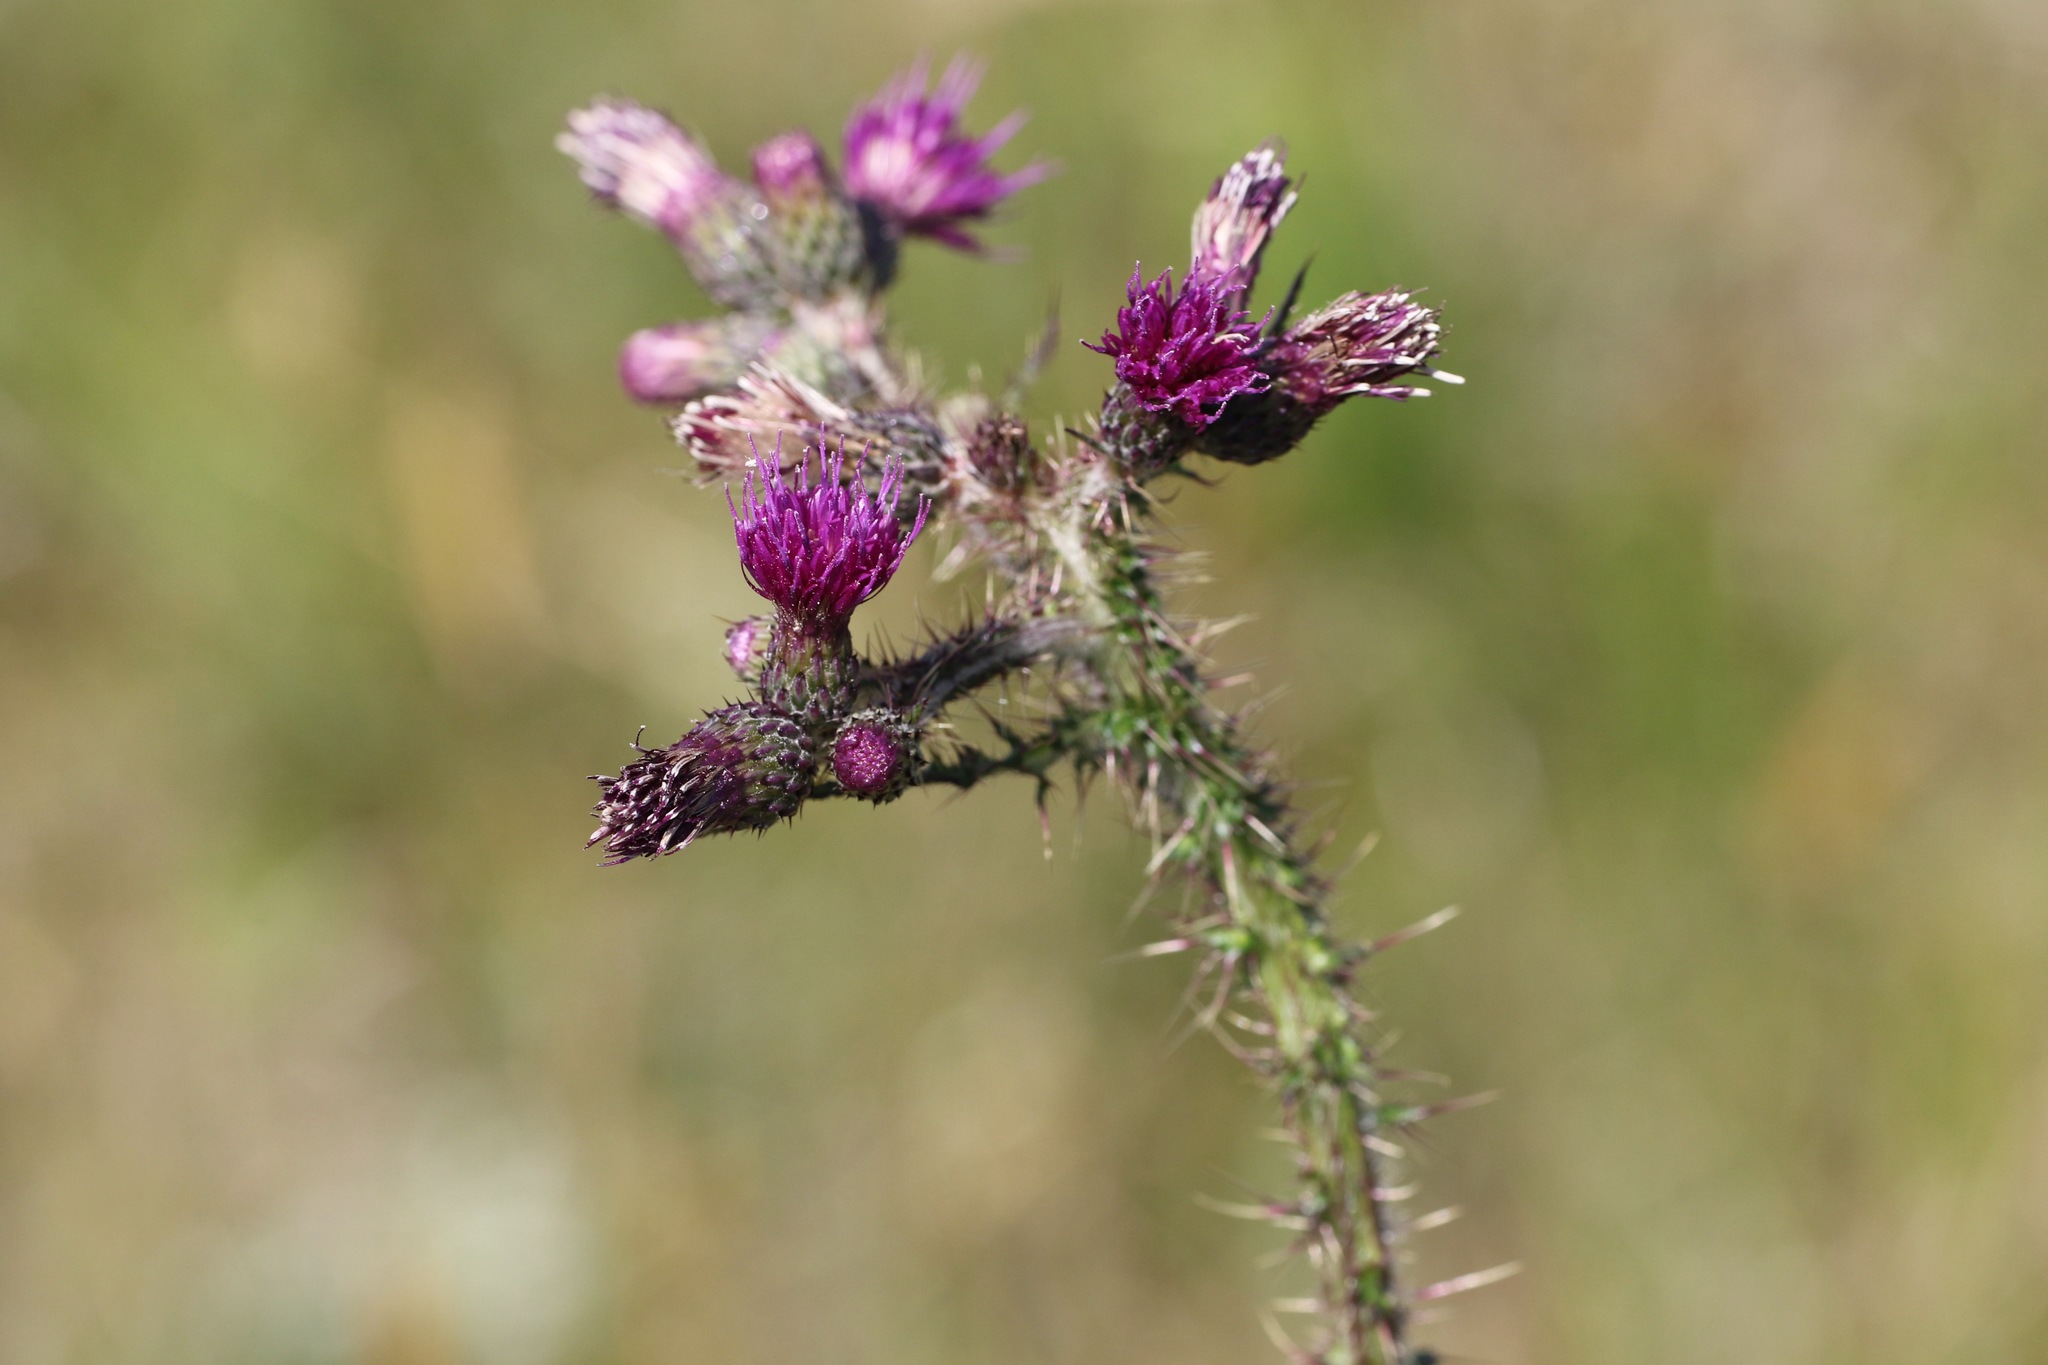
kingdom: Plantae
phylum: Tracheophyta
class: Magnoliopsida
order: Asterales
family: Asteraceae
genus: Cirsium
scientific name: Cirsium palustre
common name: Marsh thistle
